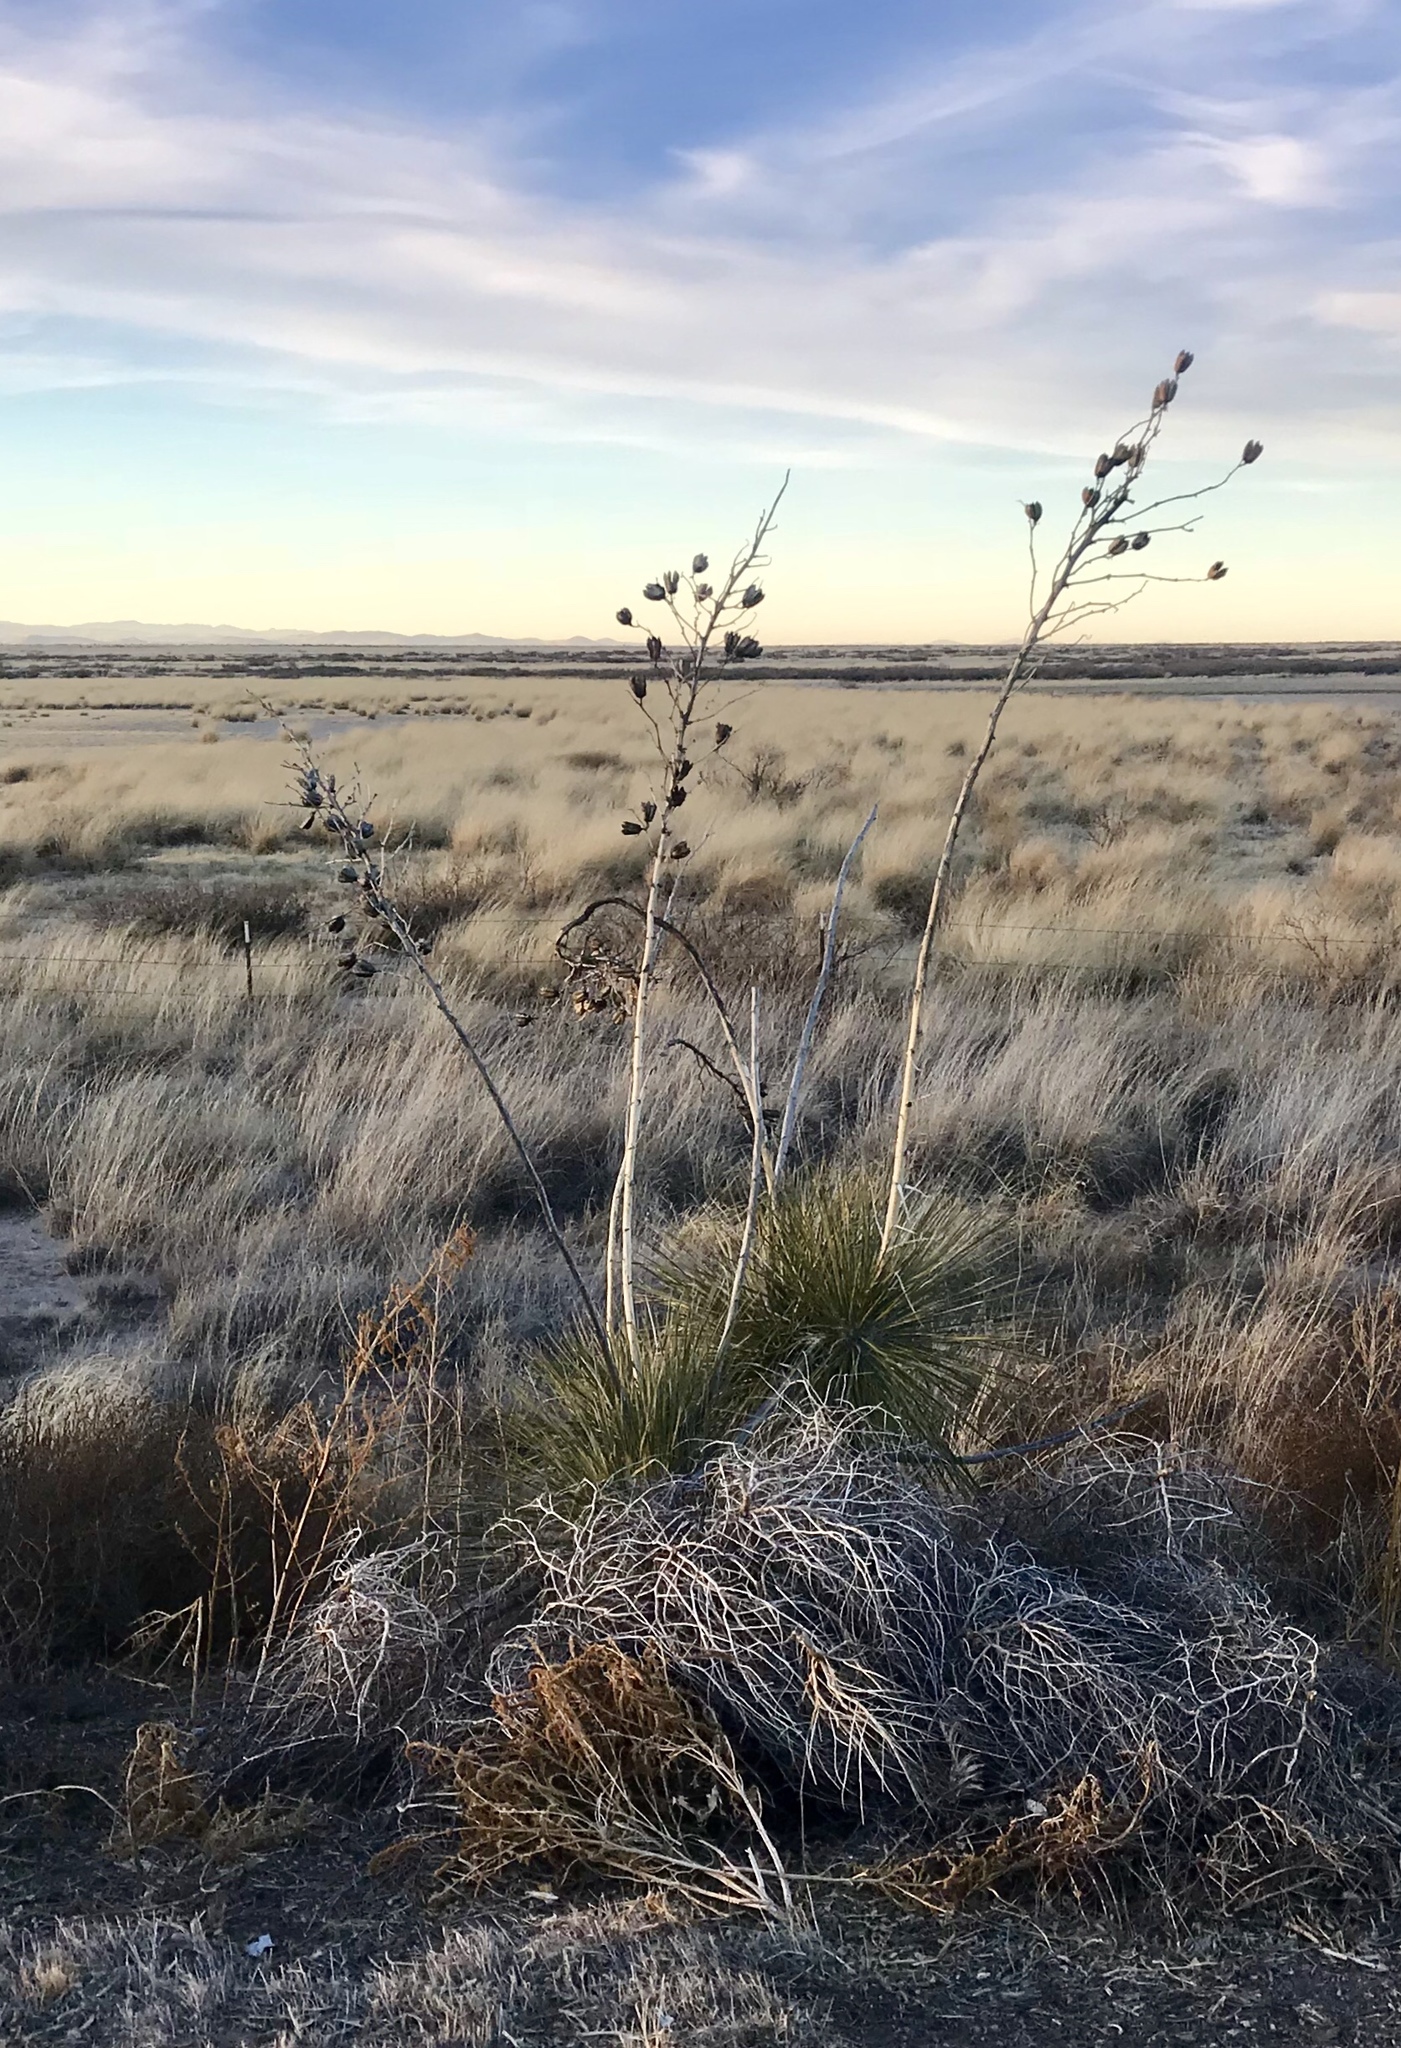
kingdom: Plantae
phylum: Tracheophyta
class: Liliopsida
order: Asparagales
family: Asparagaceae
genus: Yucca
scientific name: Yucca elata
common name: Palmella
